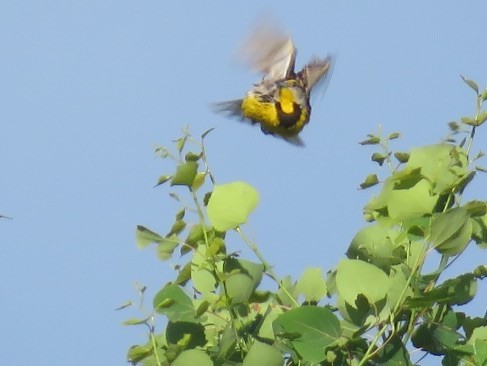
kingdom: Animalia
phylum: Chordata
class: Aves
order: Passeriformes
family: Icteridae
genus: Sturnella
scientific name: Sturnella magna
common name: Eastern meadowlark
